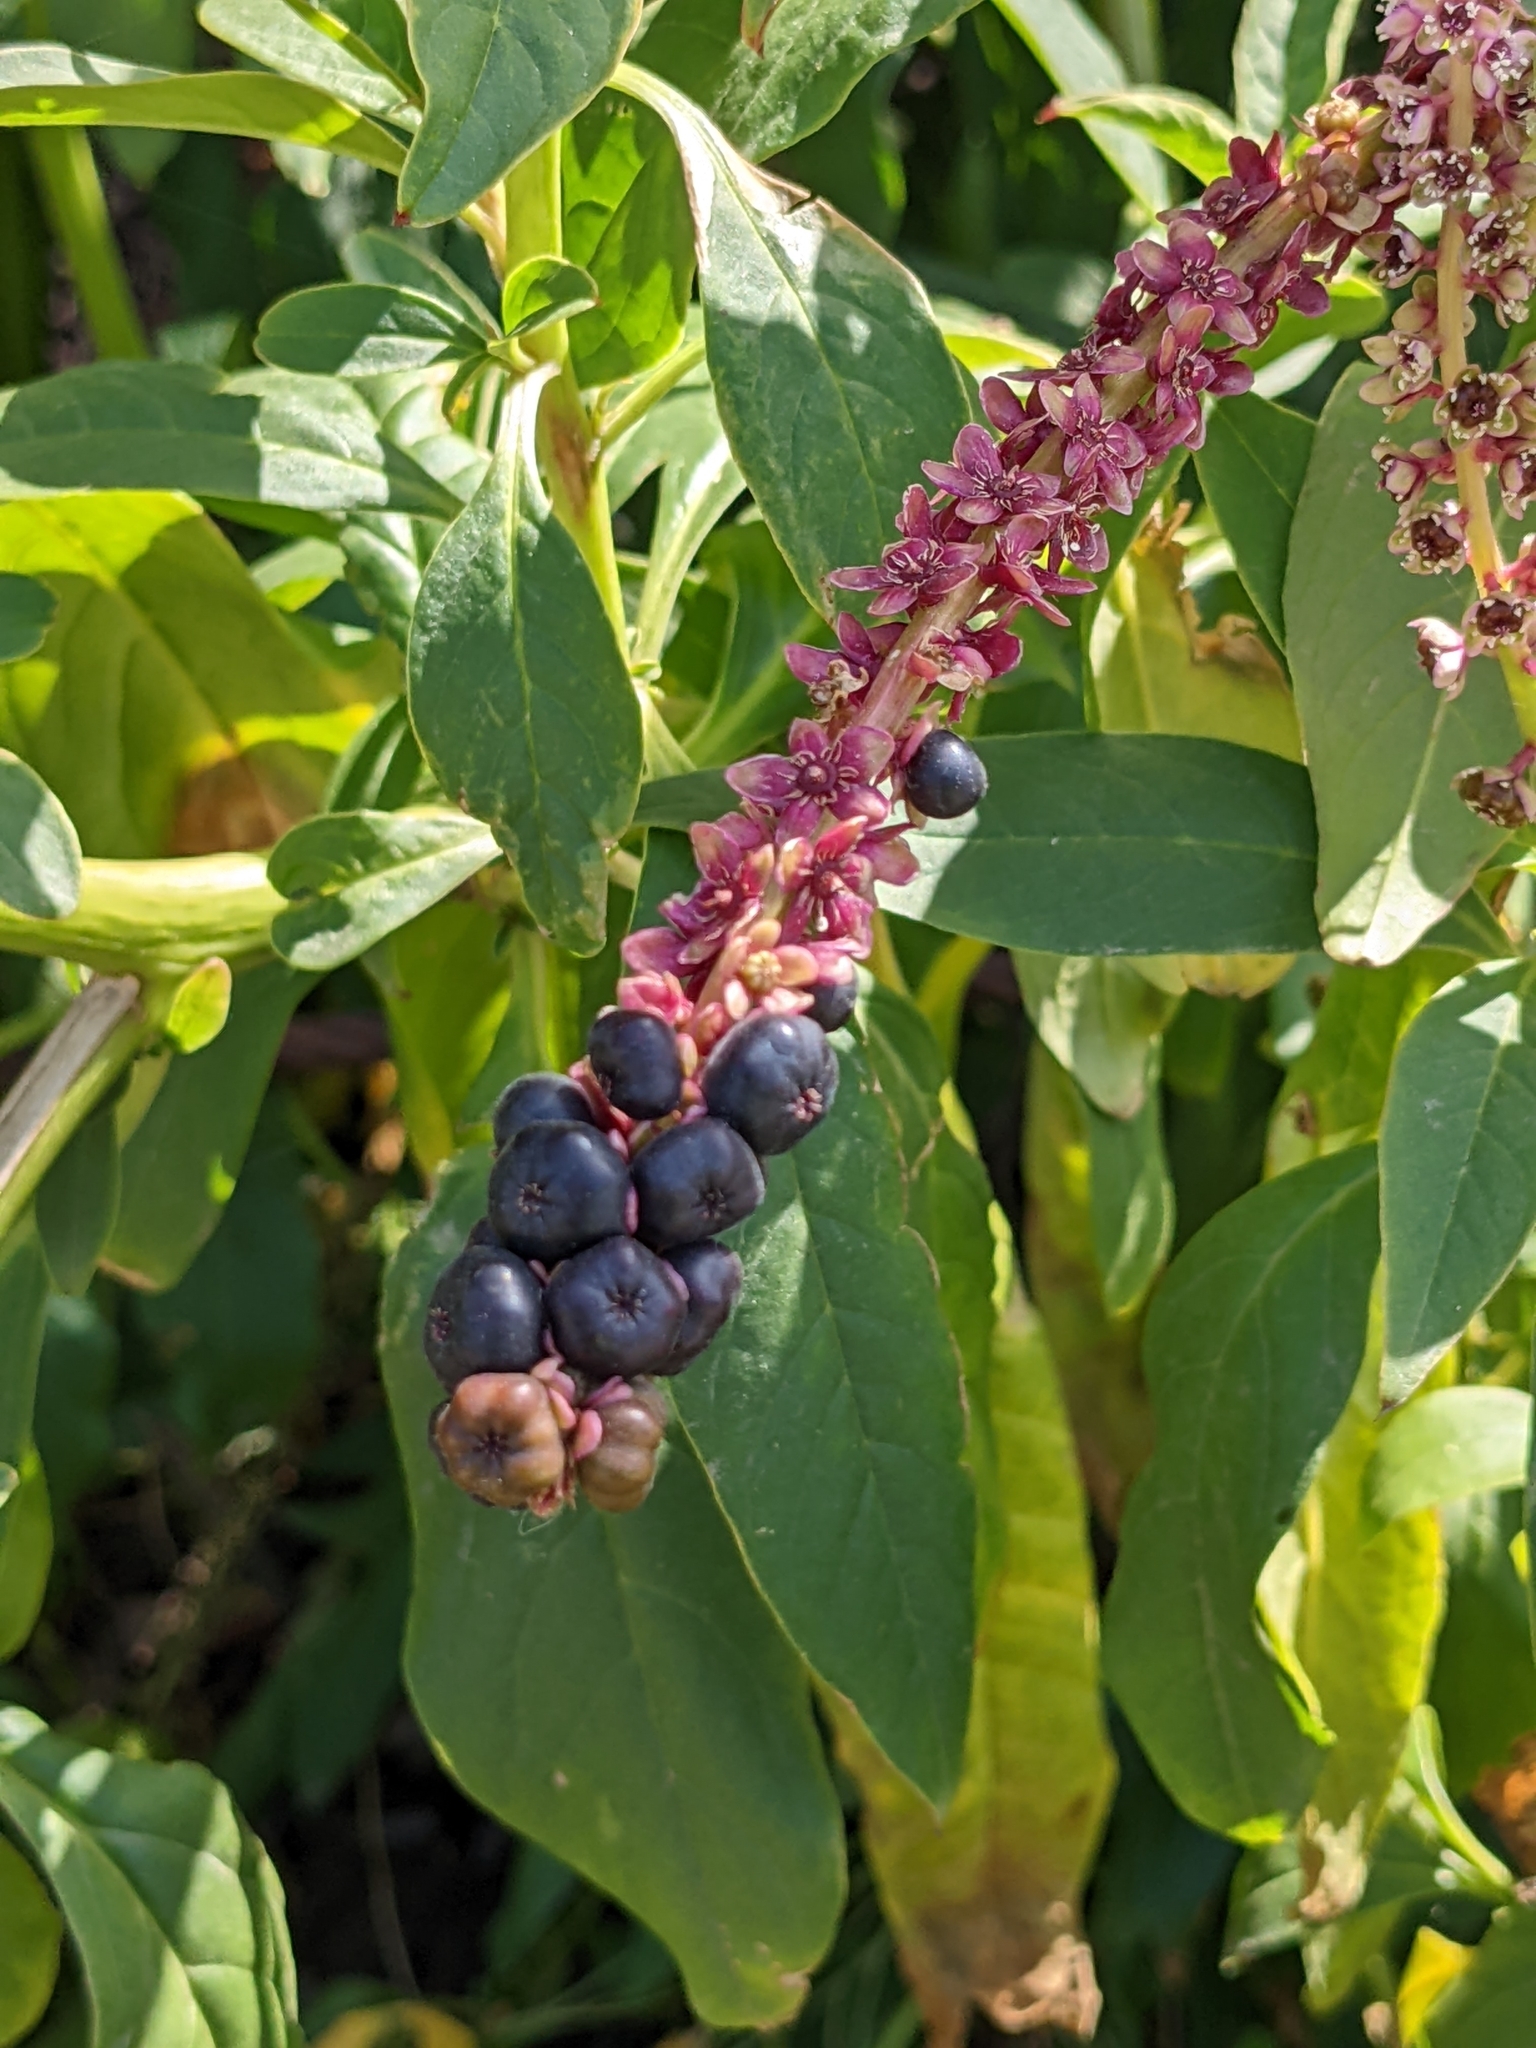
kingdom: Plantae
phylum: Tracheophyta
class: Magnoliopsida
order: Caryophyllales
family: Phytolaccaceae
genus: Phytolacca
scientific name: Phytolacca icosandra
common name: Button pokeweed
